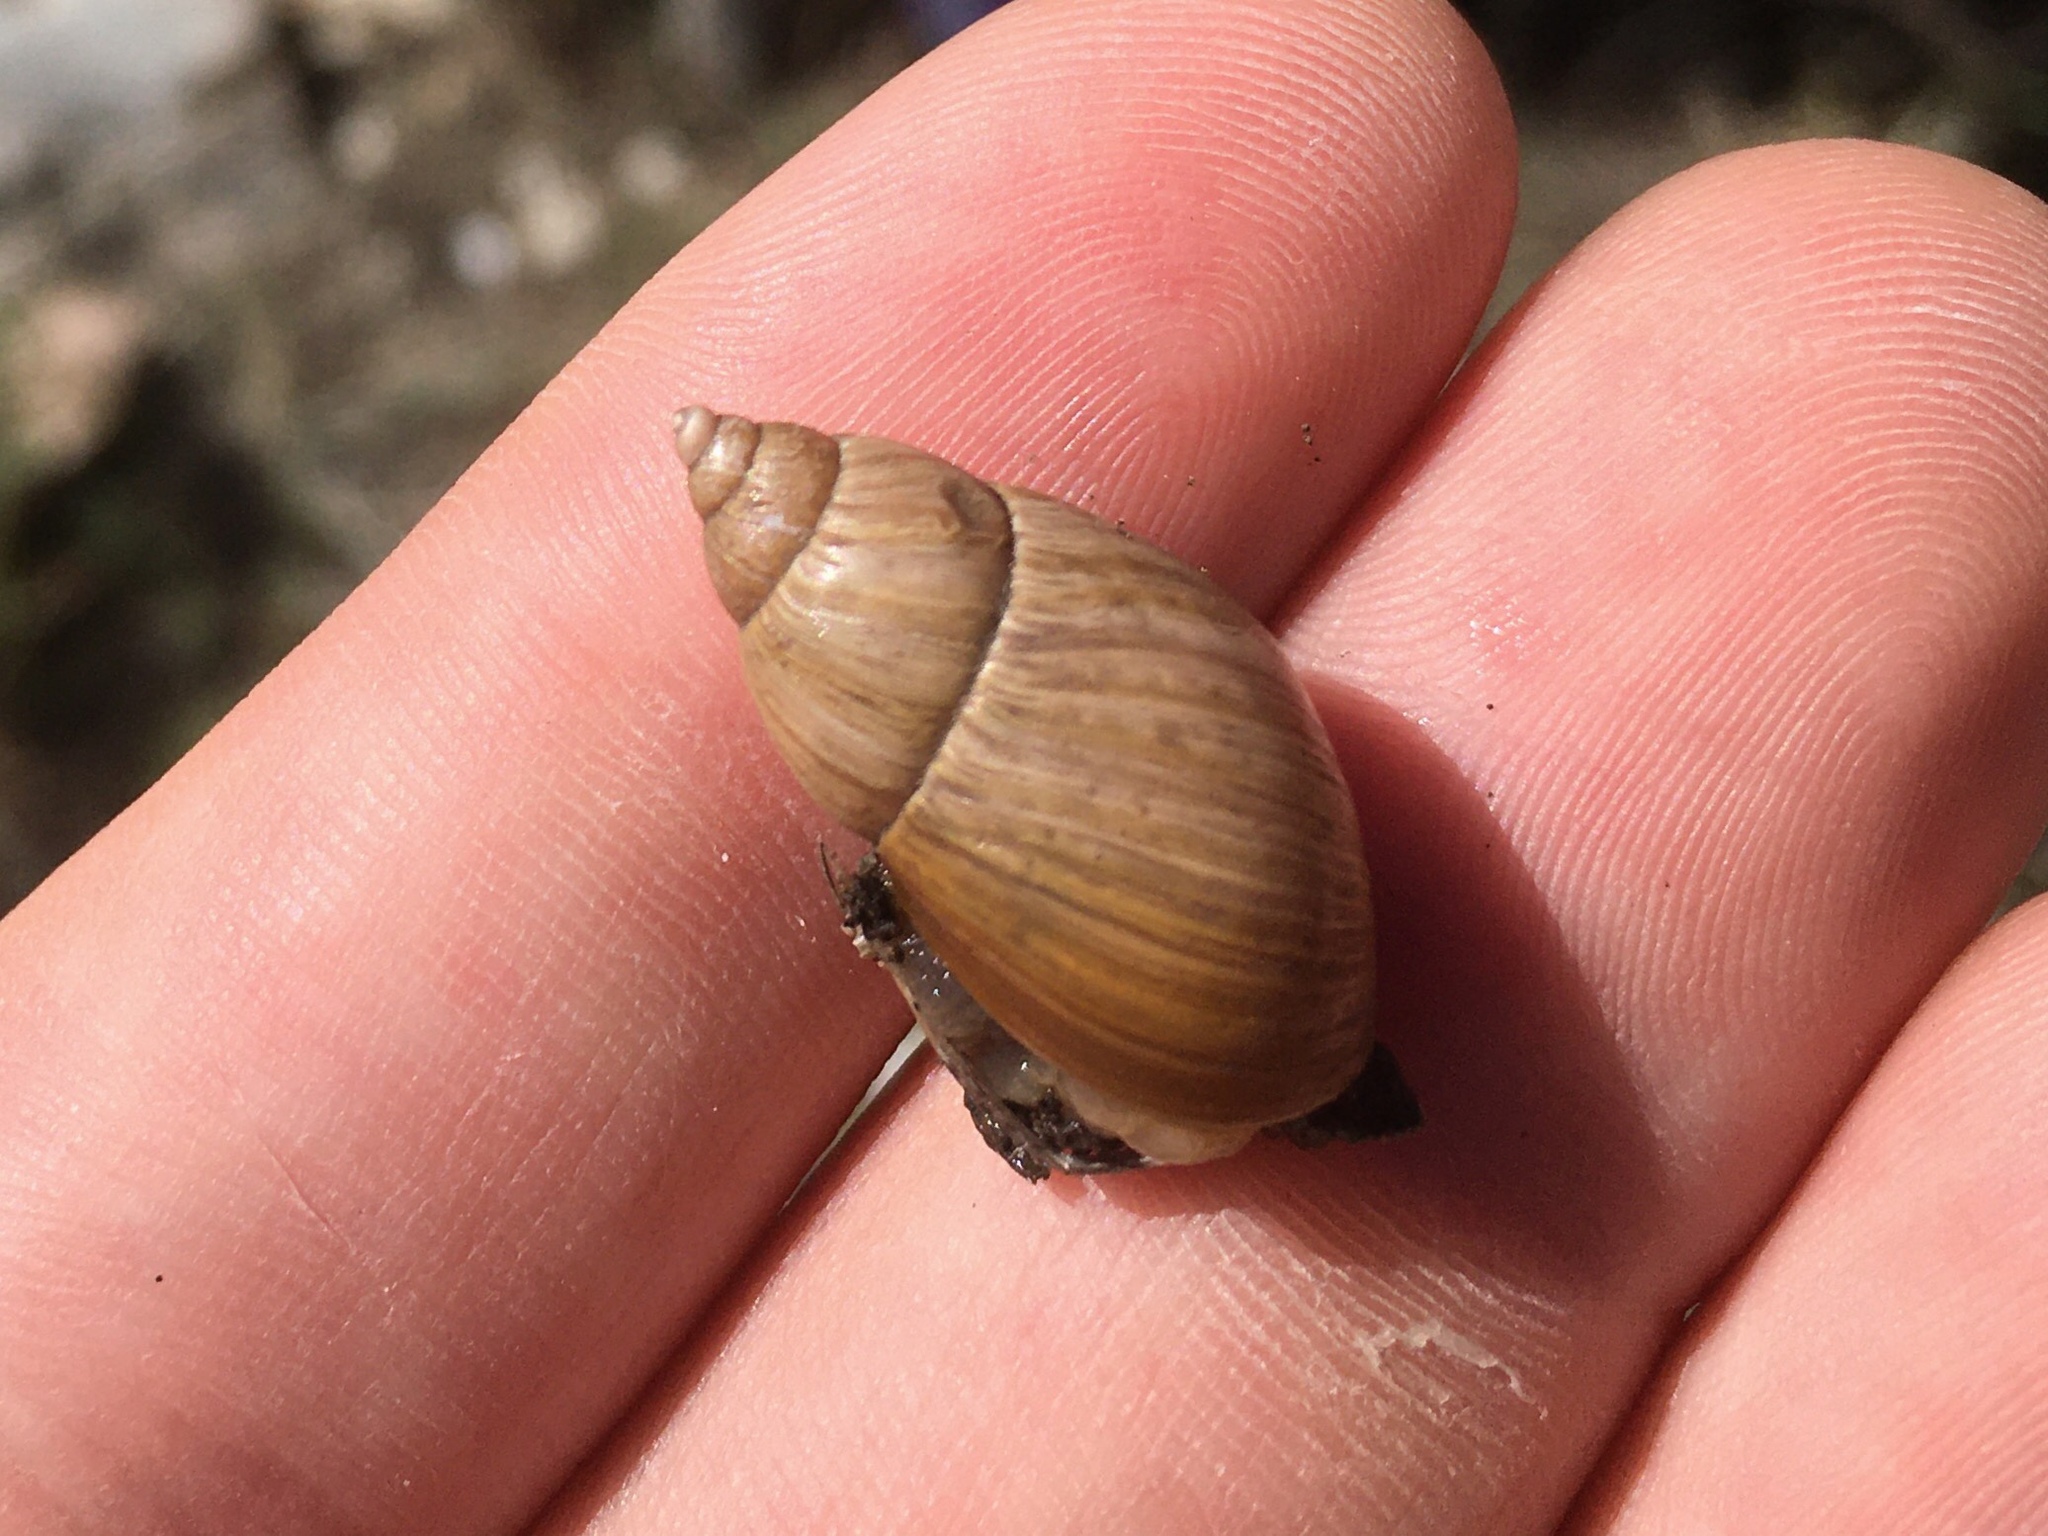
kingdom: Animalia
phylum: Mollusca
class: Gastropoda
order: Stylommatophora
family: Bothriembryontidae
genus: Discoleus
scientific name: Discoleus aguirrei
